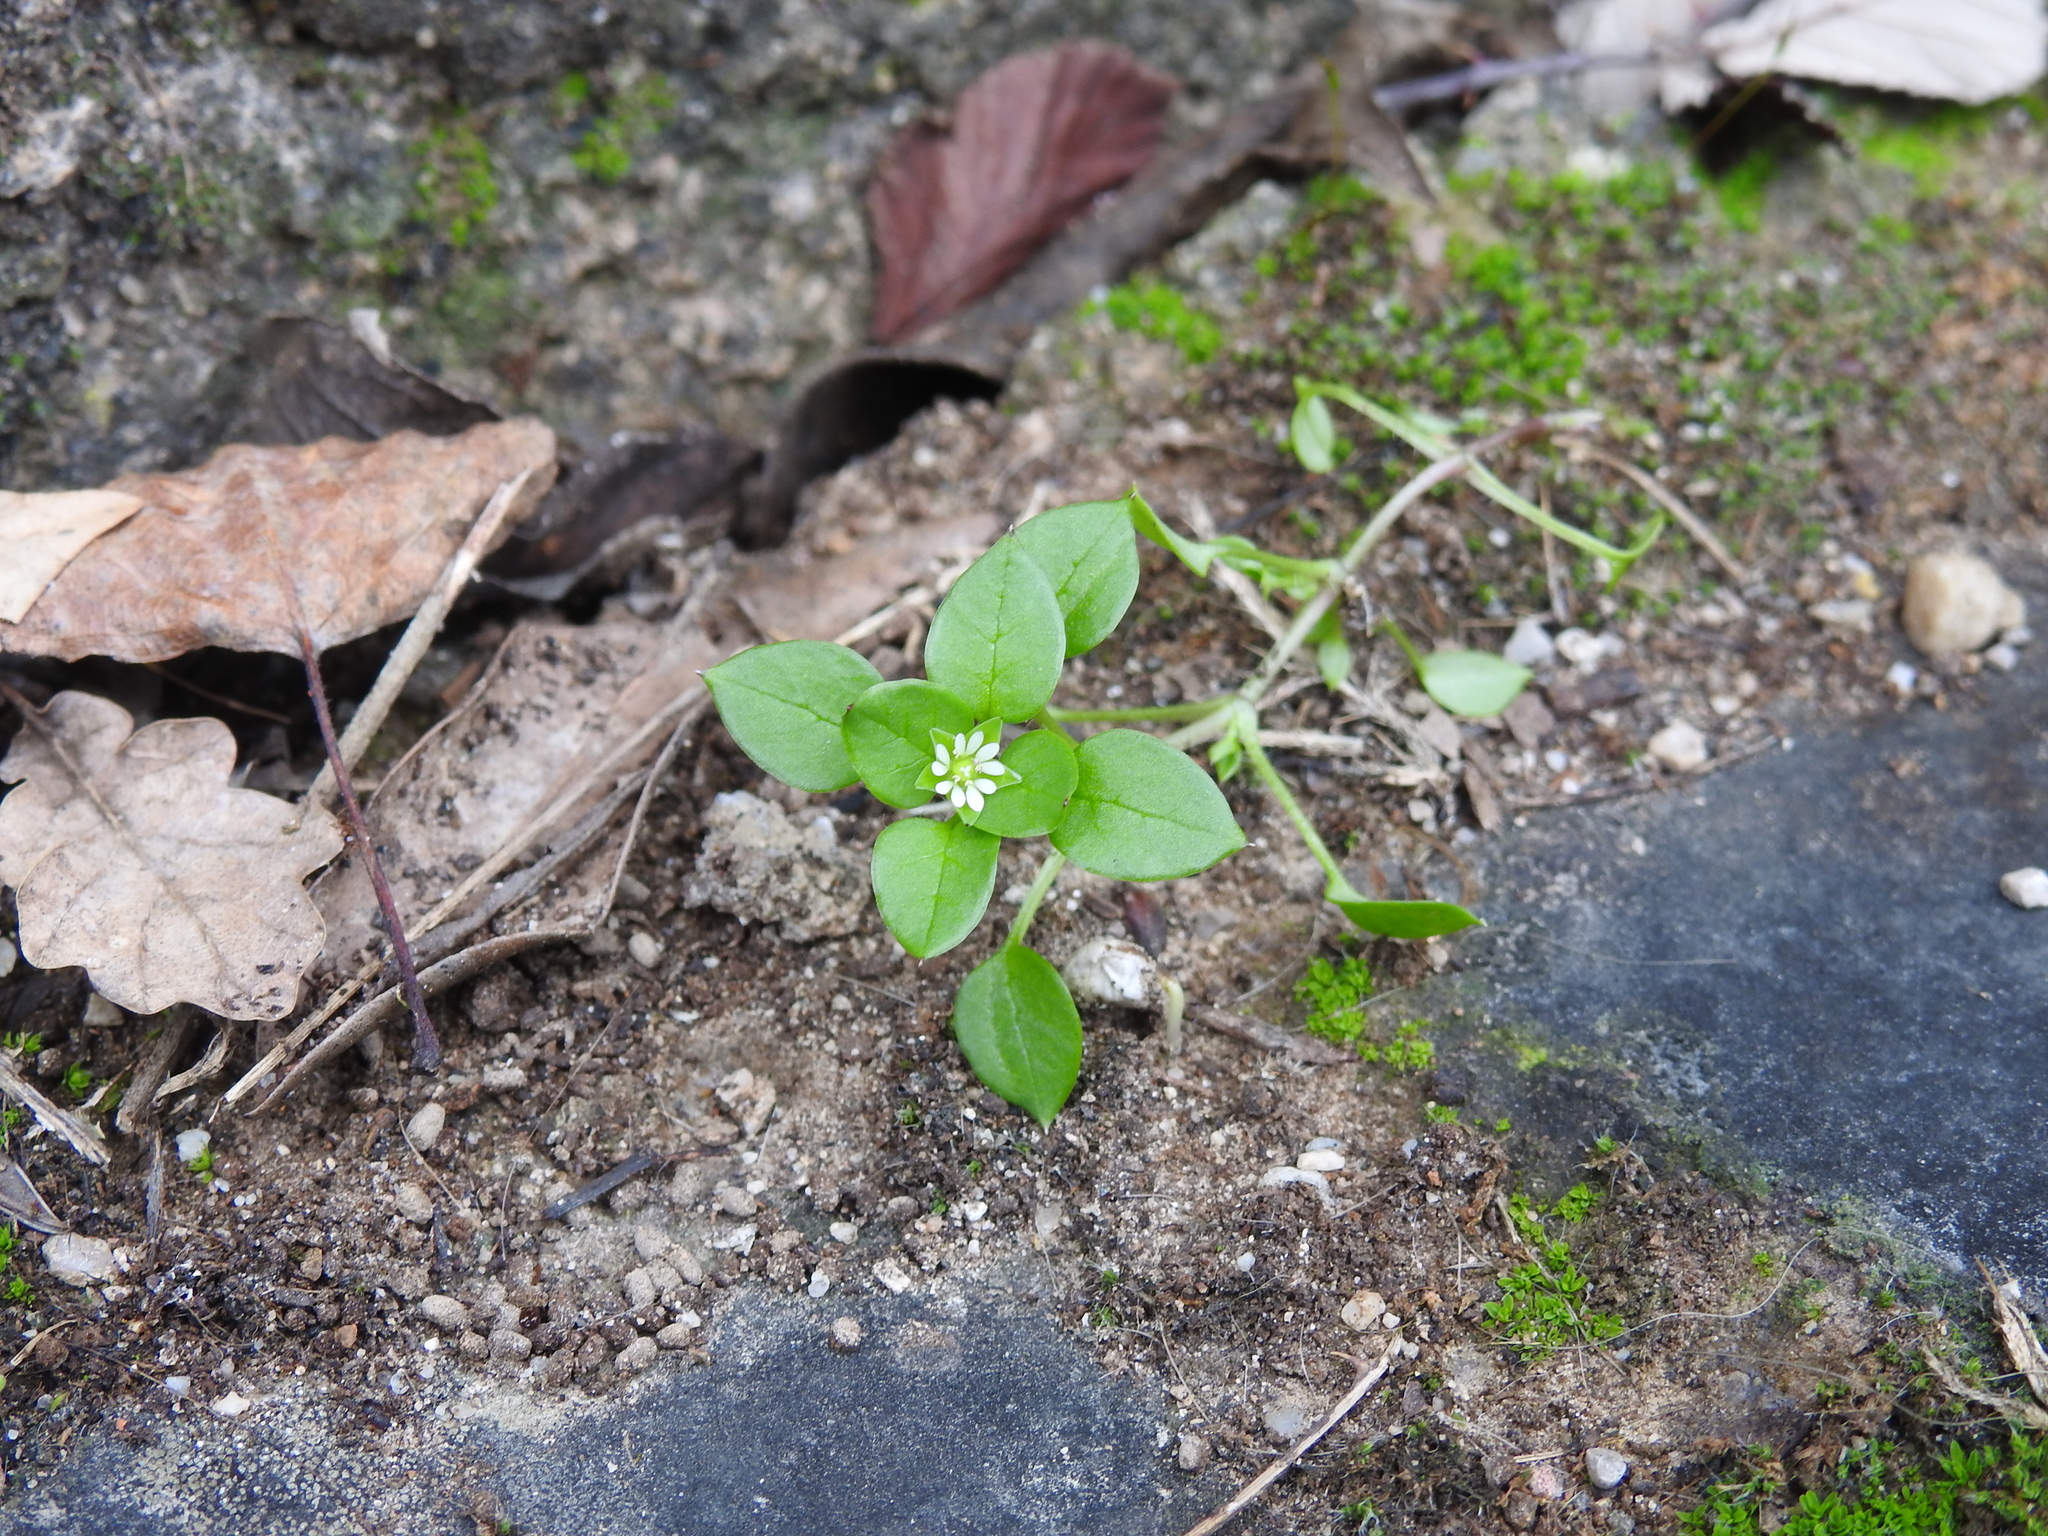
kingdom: Plantae
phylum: Tracheophyta
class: Magnoliopsida
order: Caryophyllales
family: Caryophyllaceae
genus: Stellaria
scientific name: Stellaria media
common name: Common chickweed
